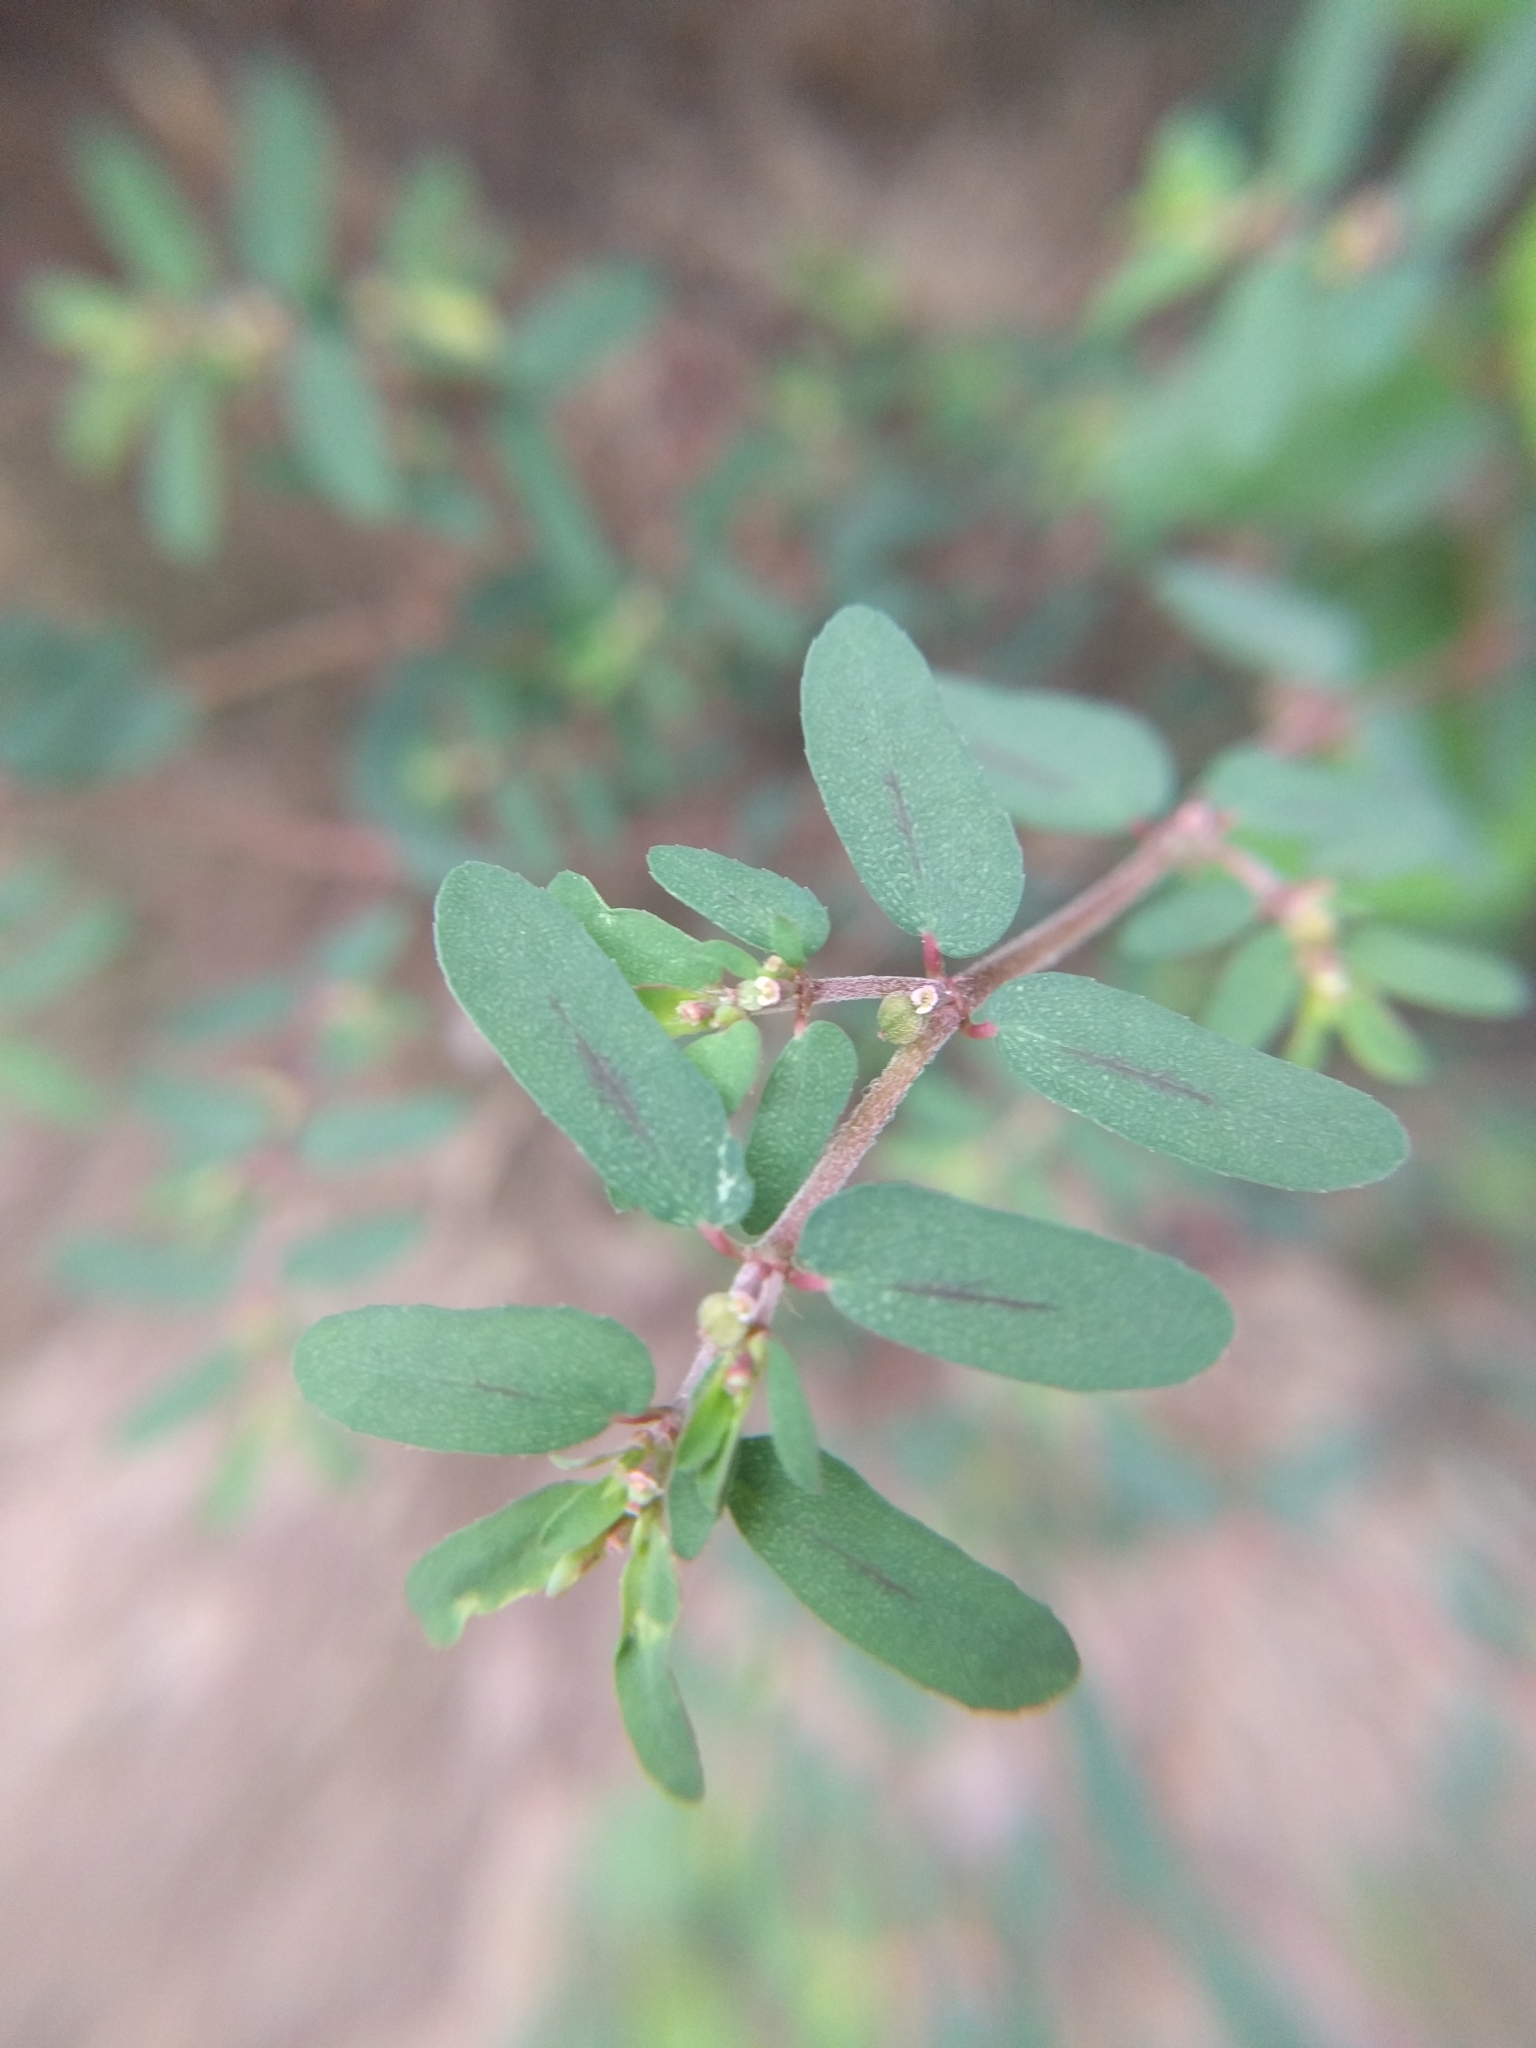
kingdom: Plantae
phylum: Tracheophyta
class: Magnoliopsida
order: Malpighiales
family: Euphorbiaceae
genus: Euphorbia
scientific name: Euphorbia maculata
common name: Spotted spurge
